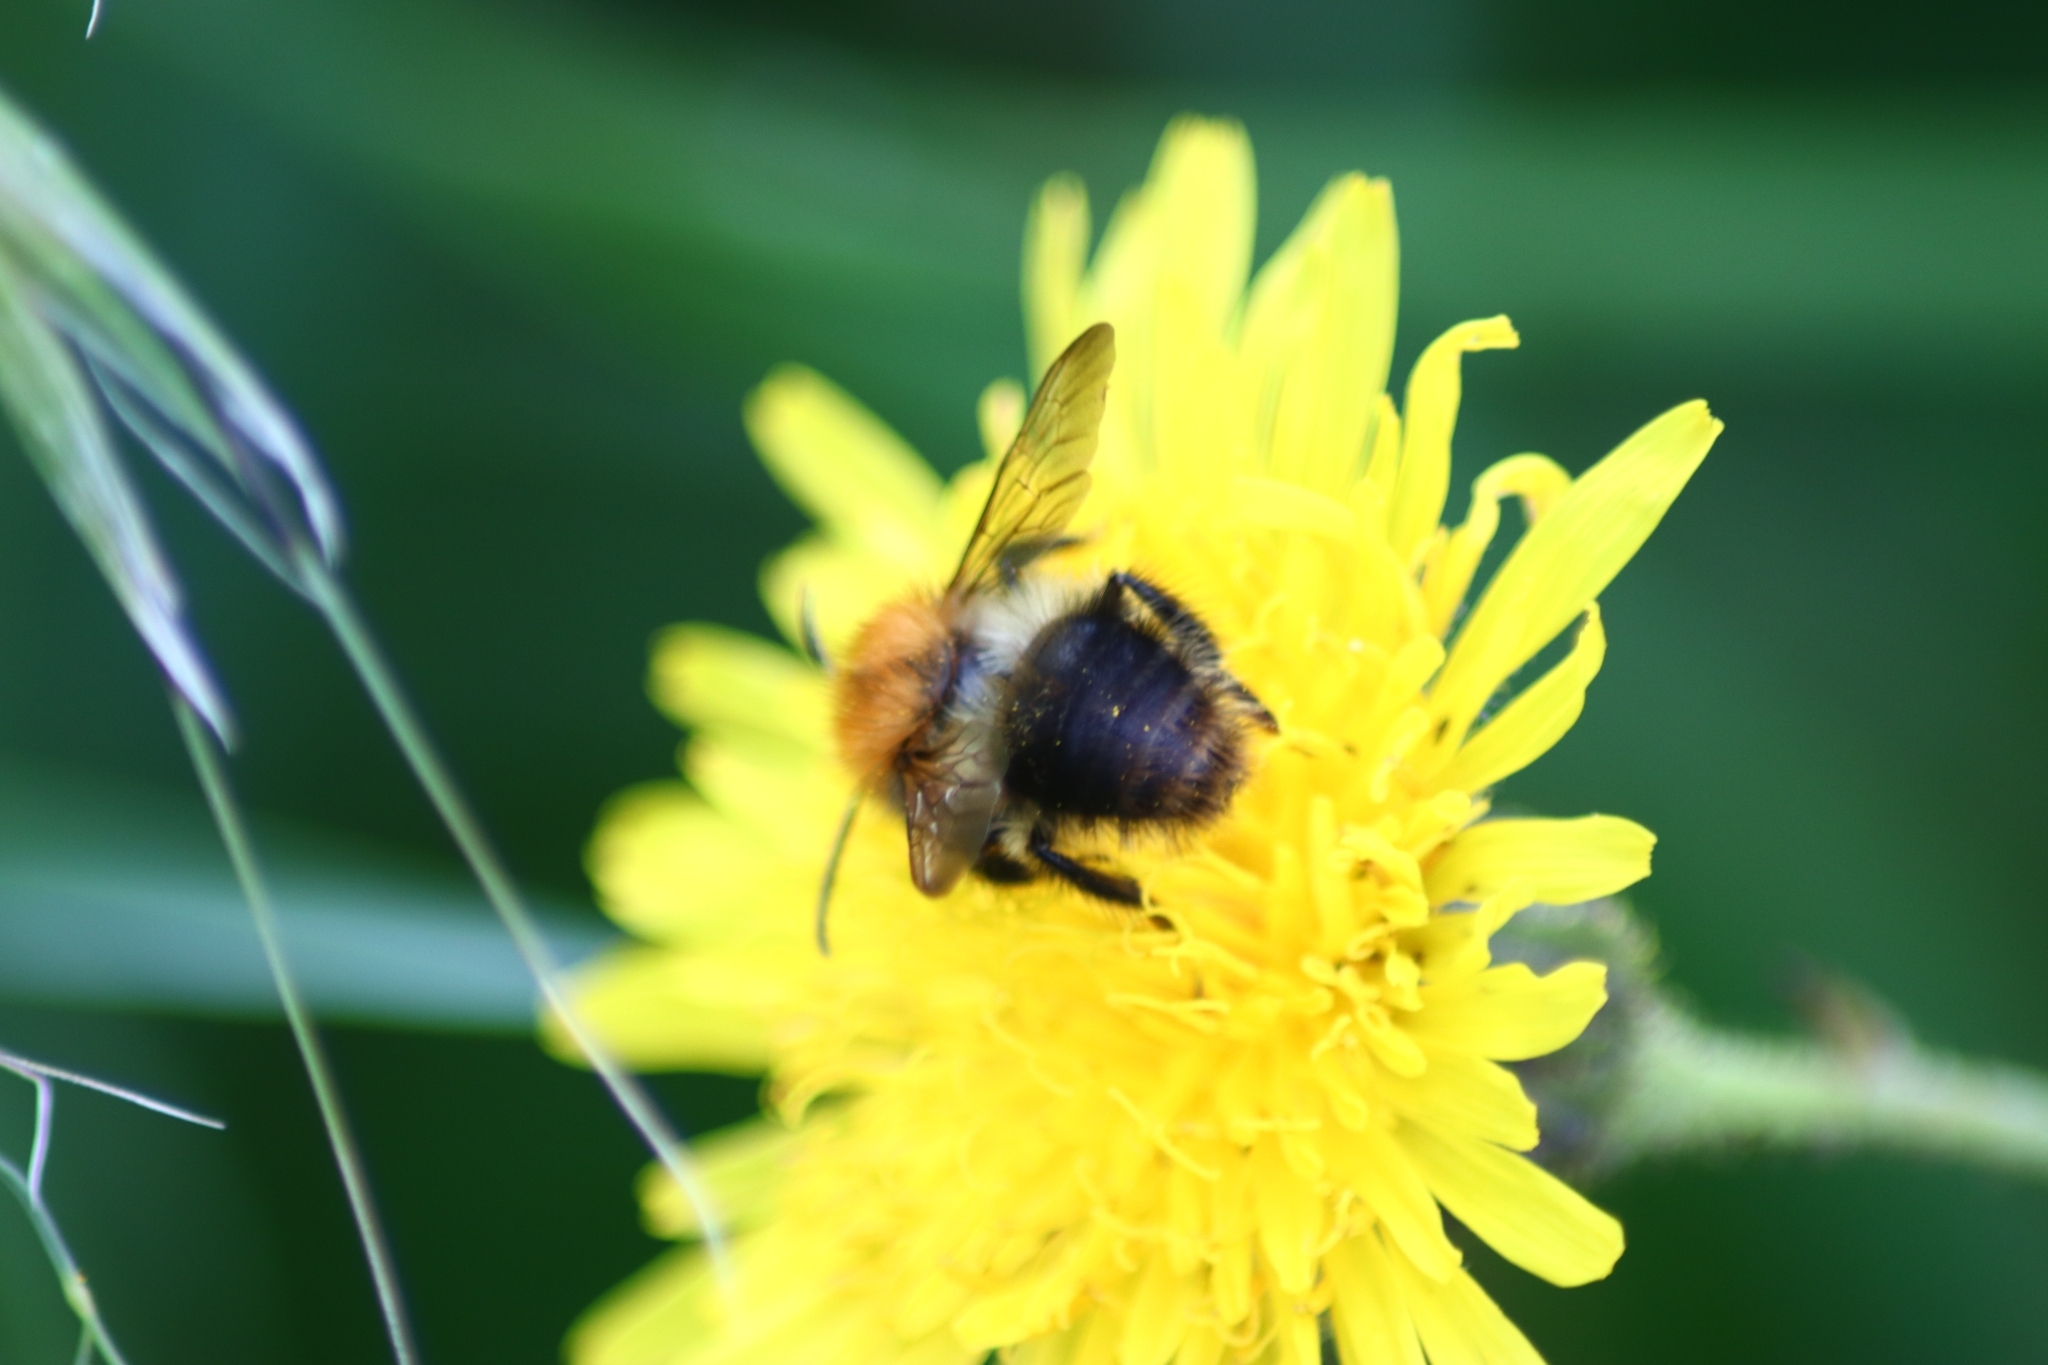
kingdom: Animalia
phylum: Arthropoda
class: Insecta
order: Hymenoptera
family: Apidae
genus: Bombus
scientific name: Bombus pascuorum
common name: Common carder bee
